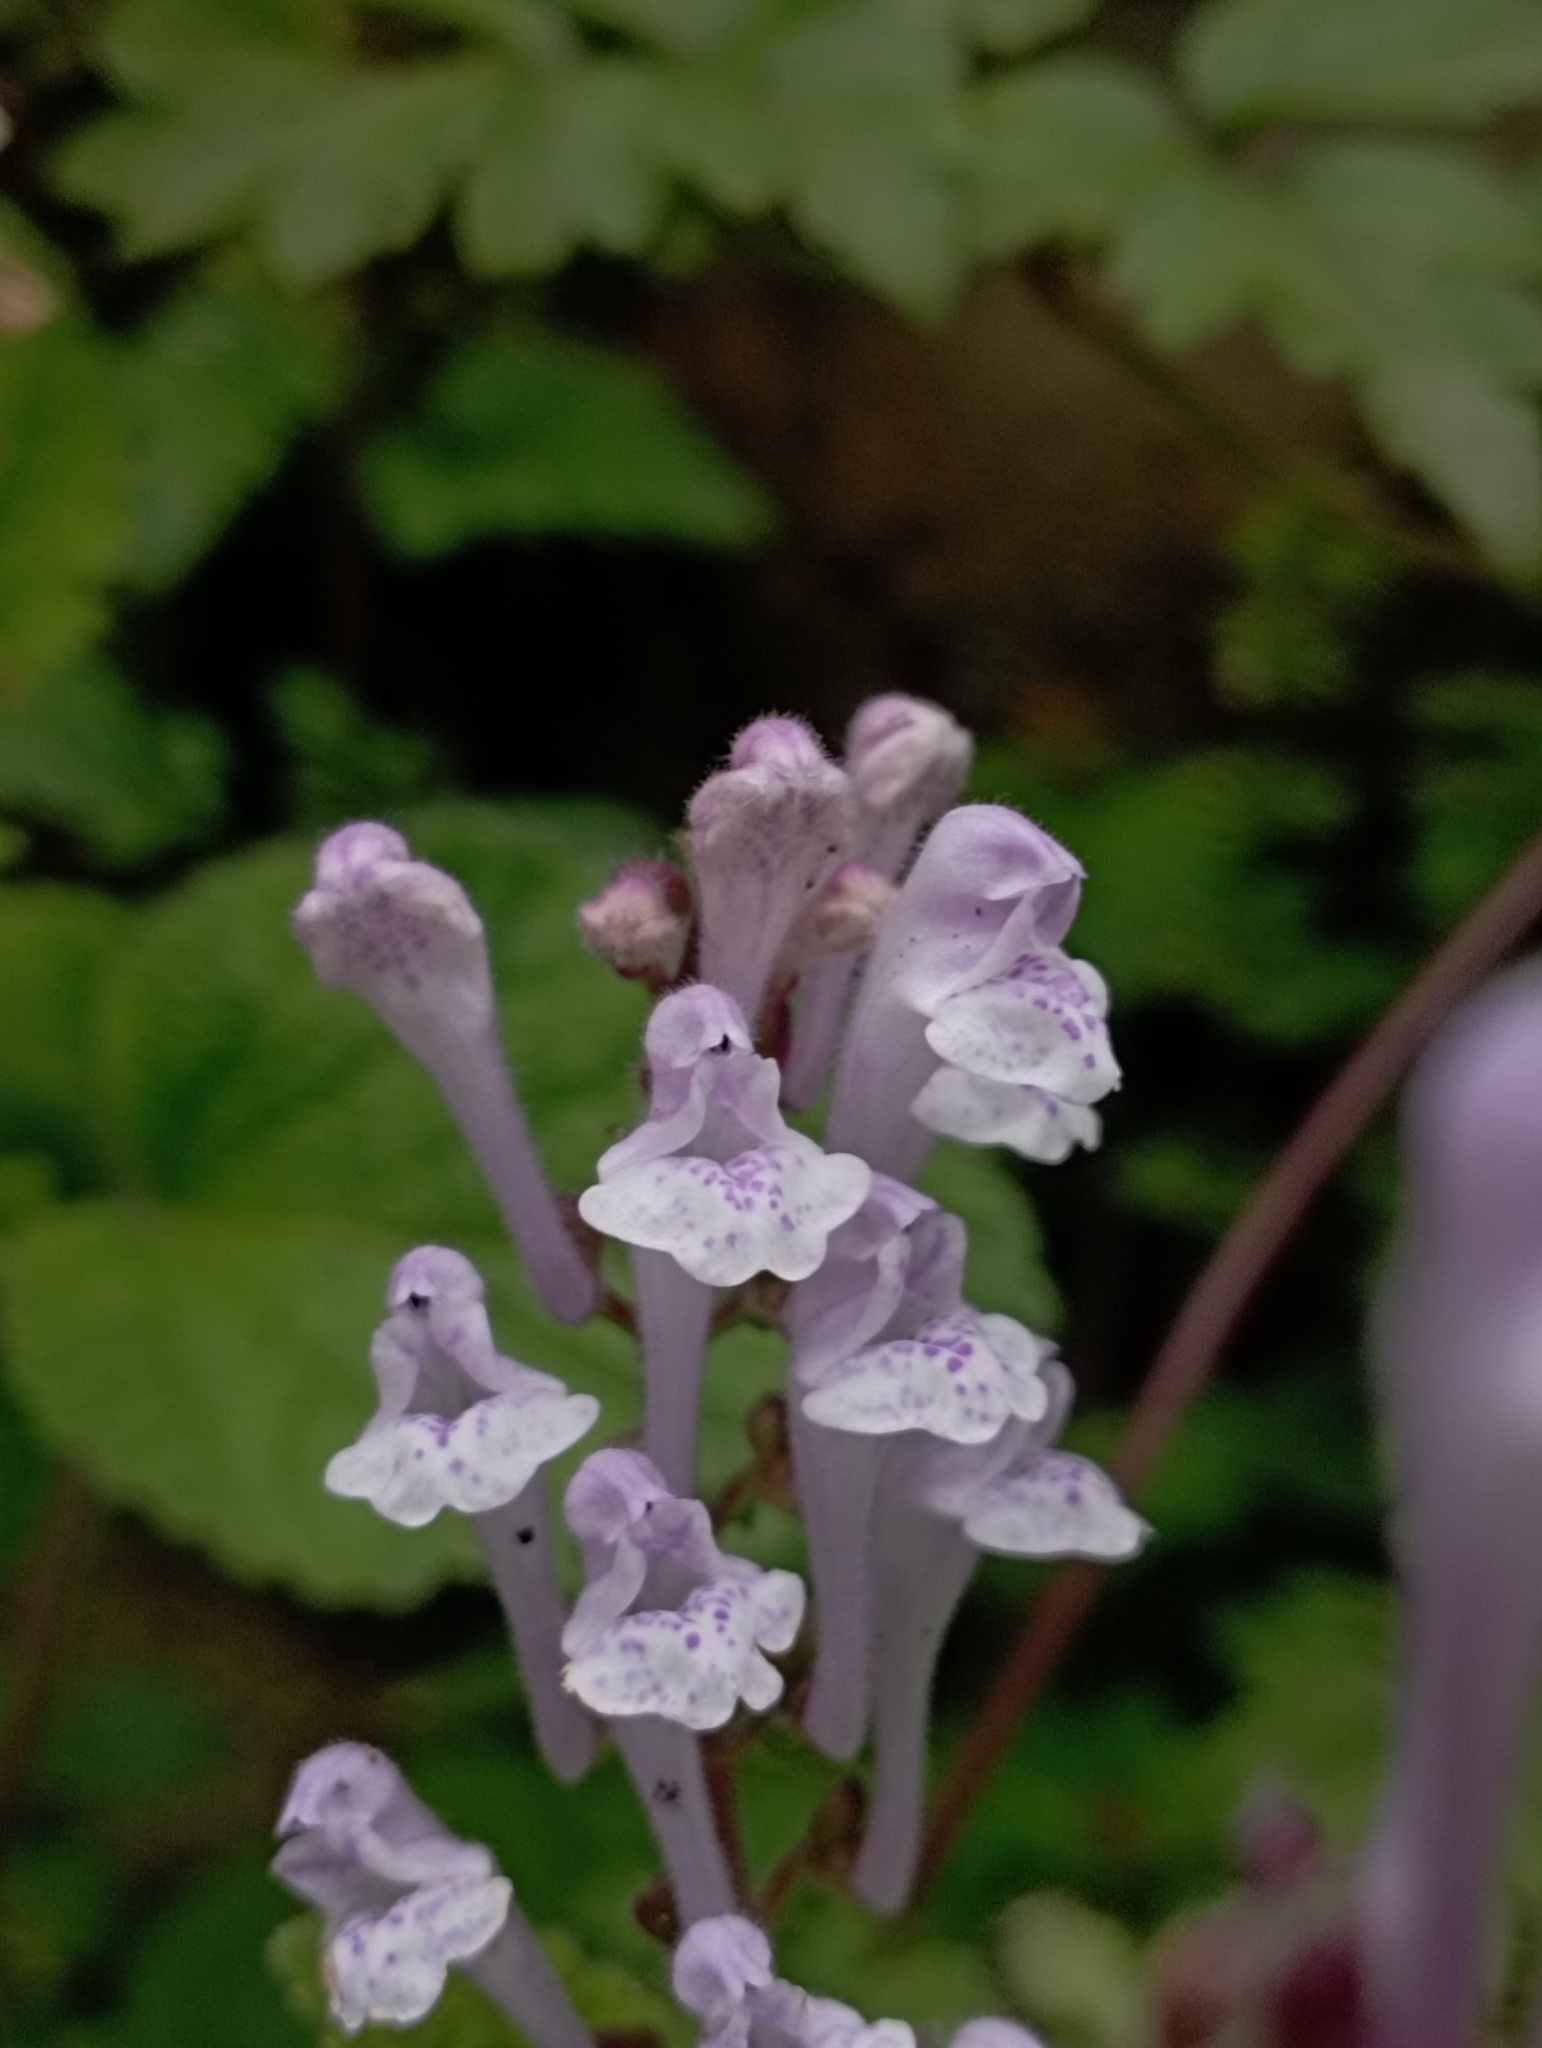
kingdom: Plantae
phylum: Tracheophyta
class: Magnoliopsida
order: Lamiales
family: Lamiaceae
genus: Scutellaria
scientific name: Scutellaria indica
